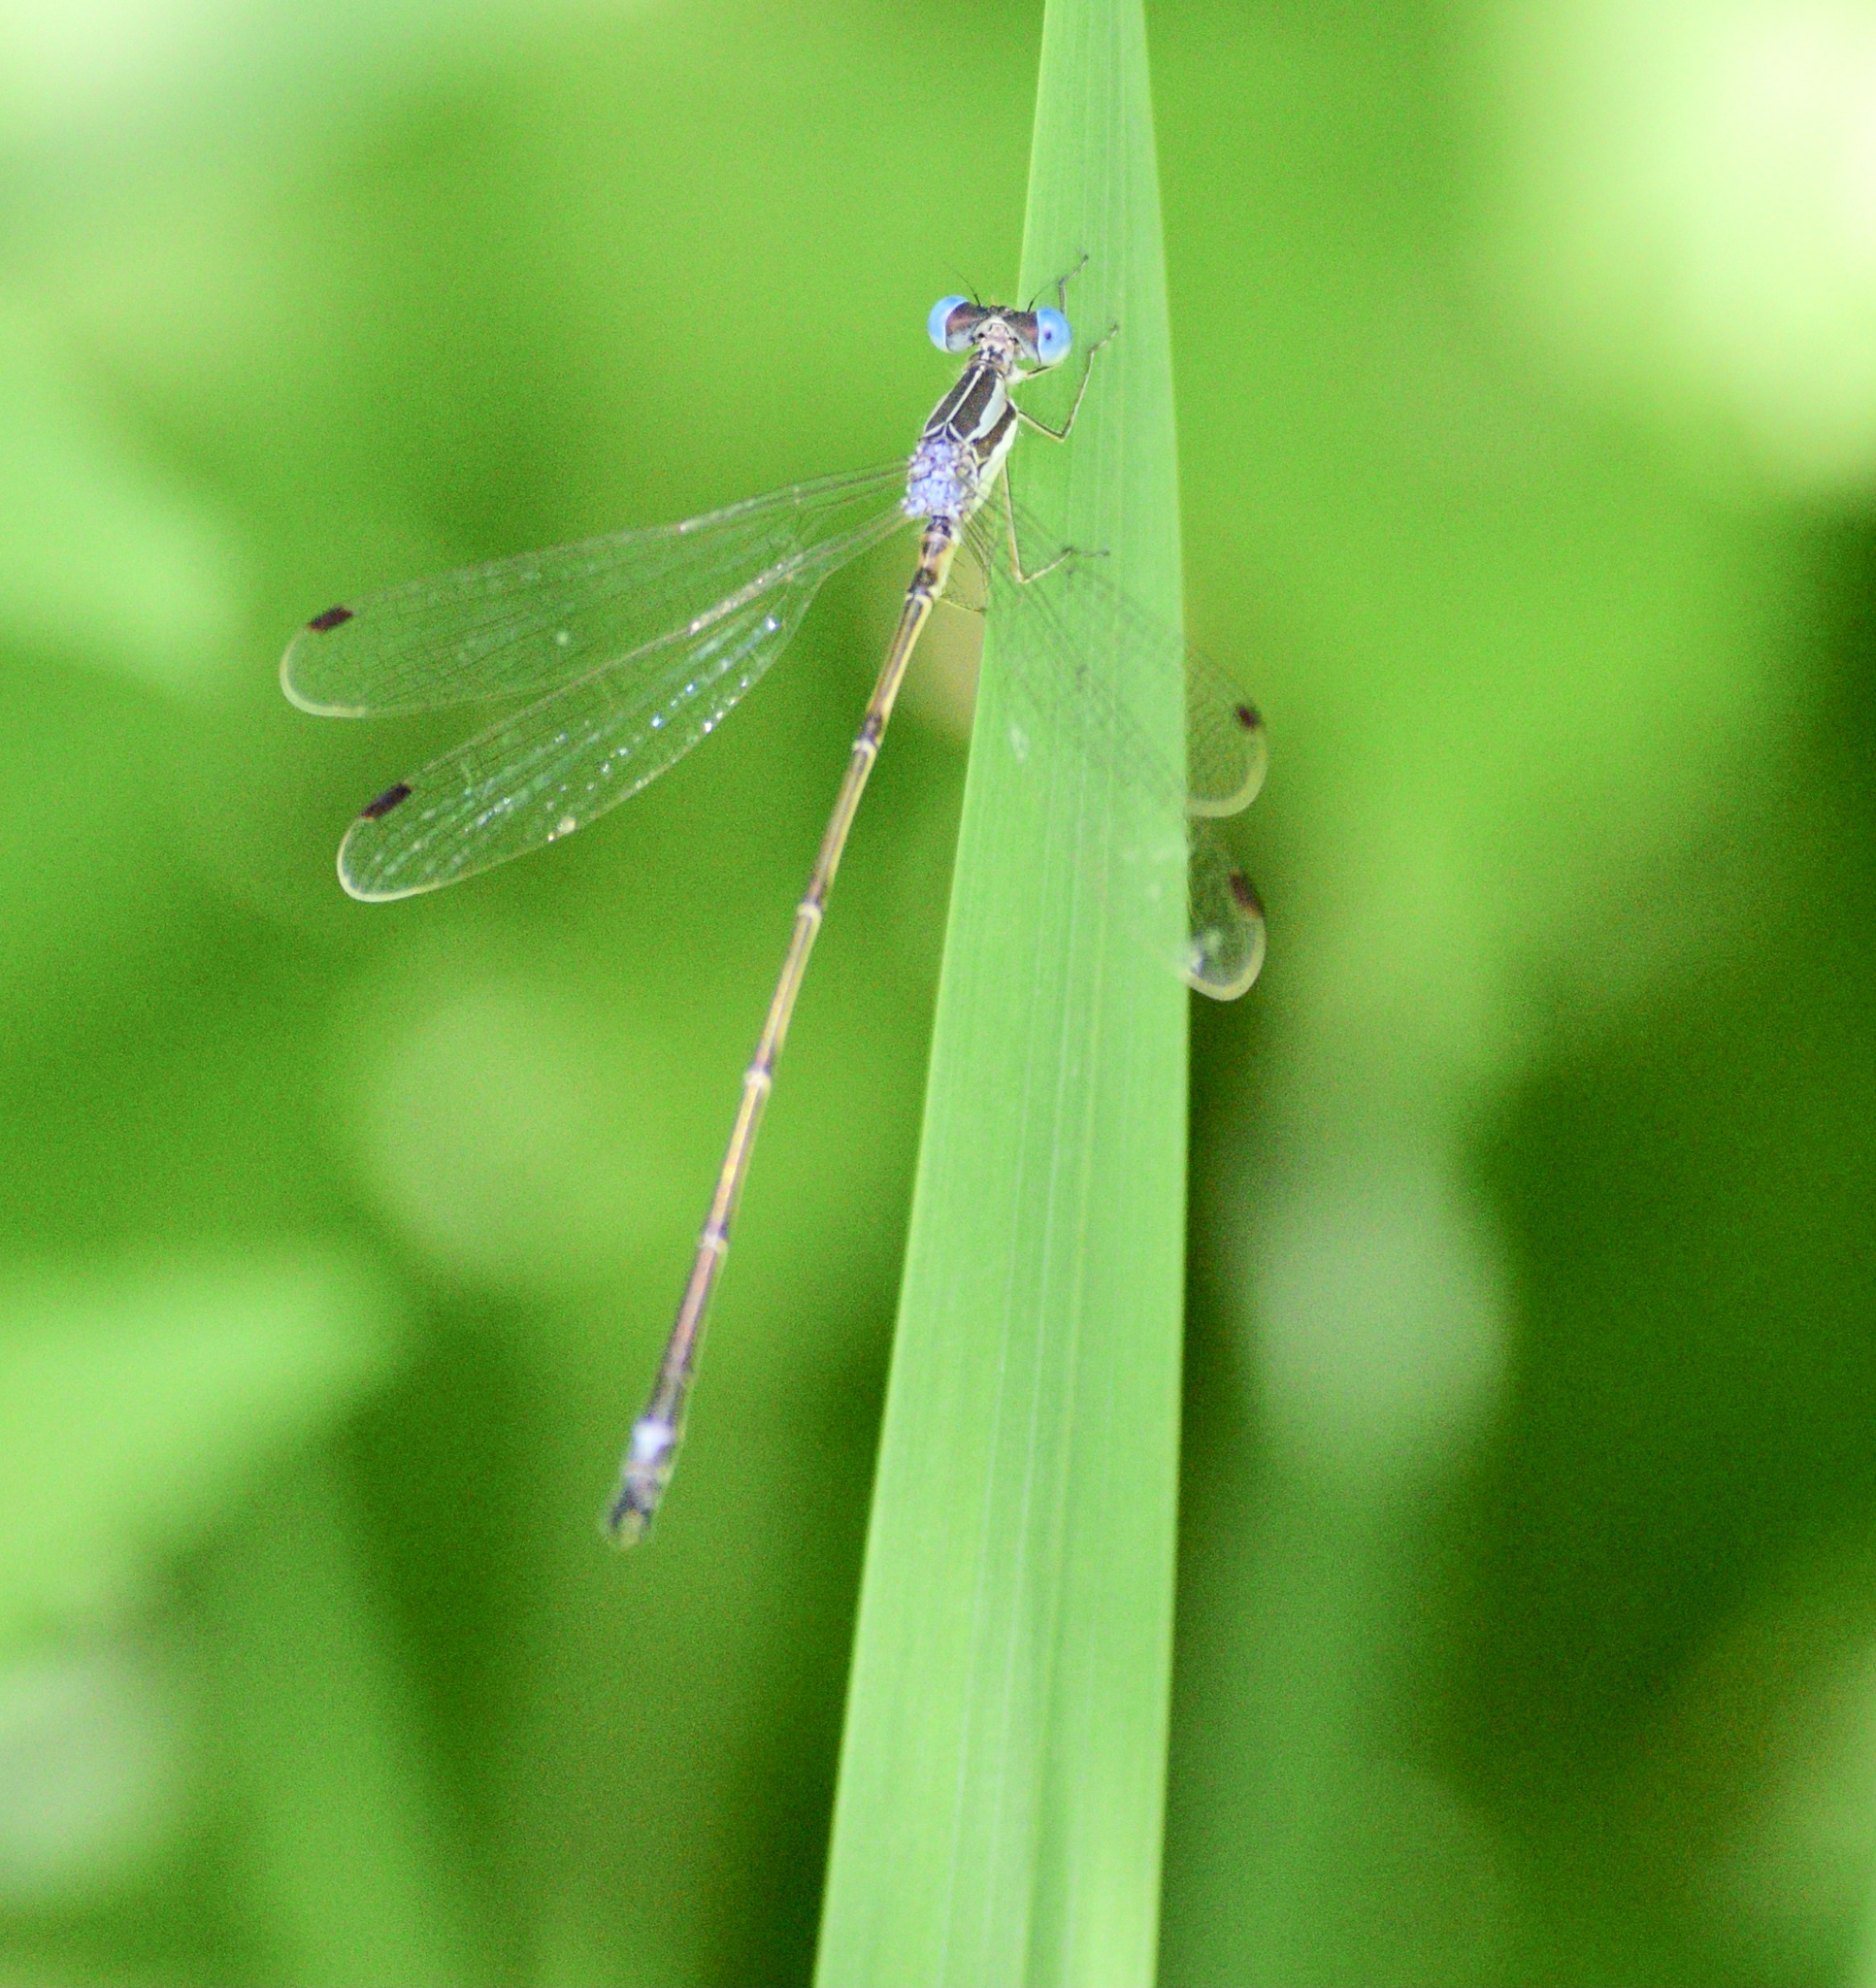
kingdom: Animalia
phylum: Arthropoda
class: Insecta
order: Odonata
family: Lestidae
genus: Lestes
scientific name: Lestes rectangularis
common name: Slender spreadwing
